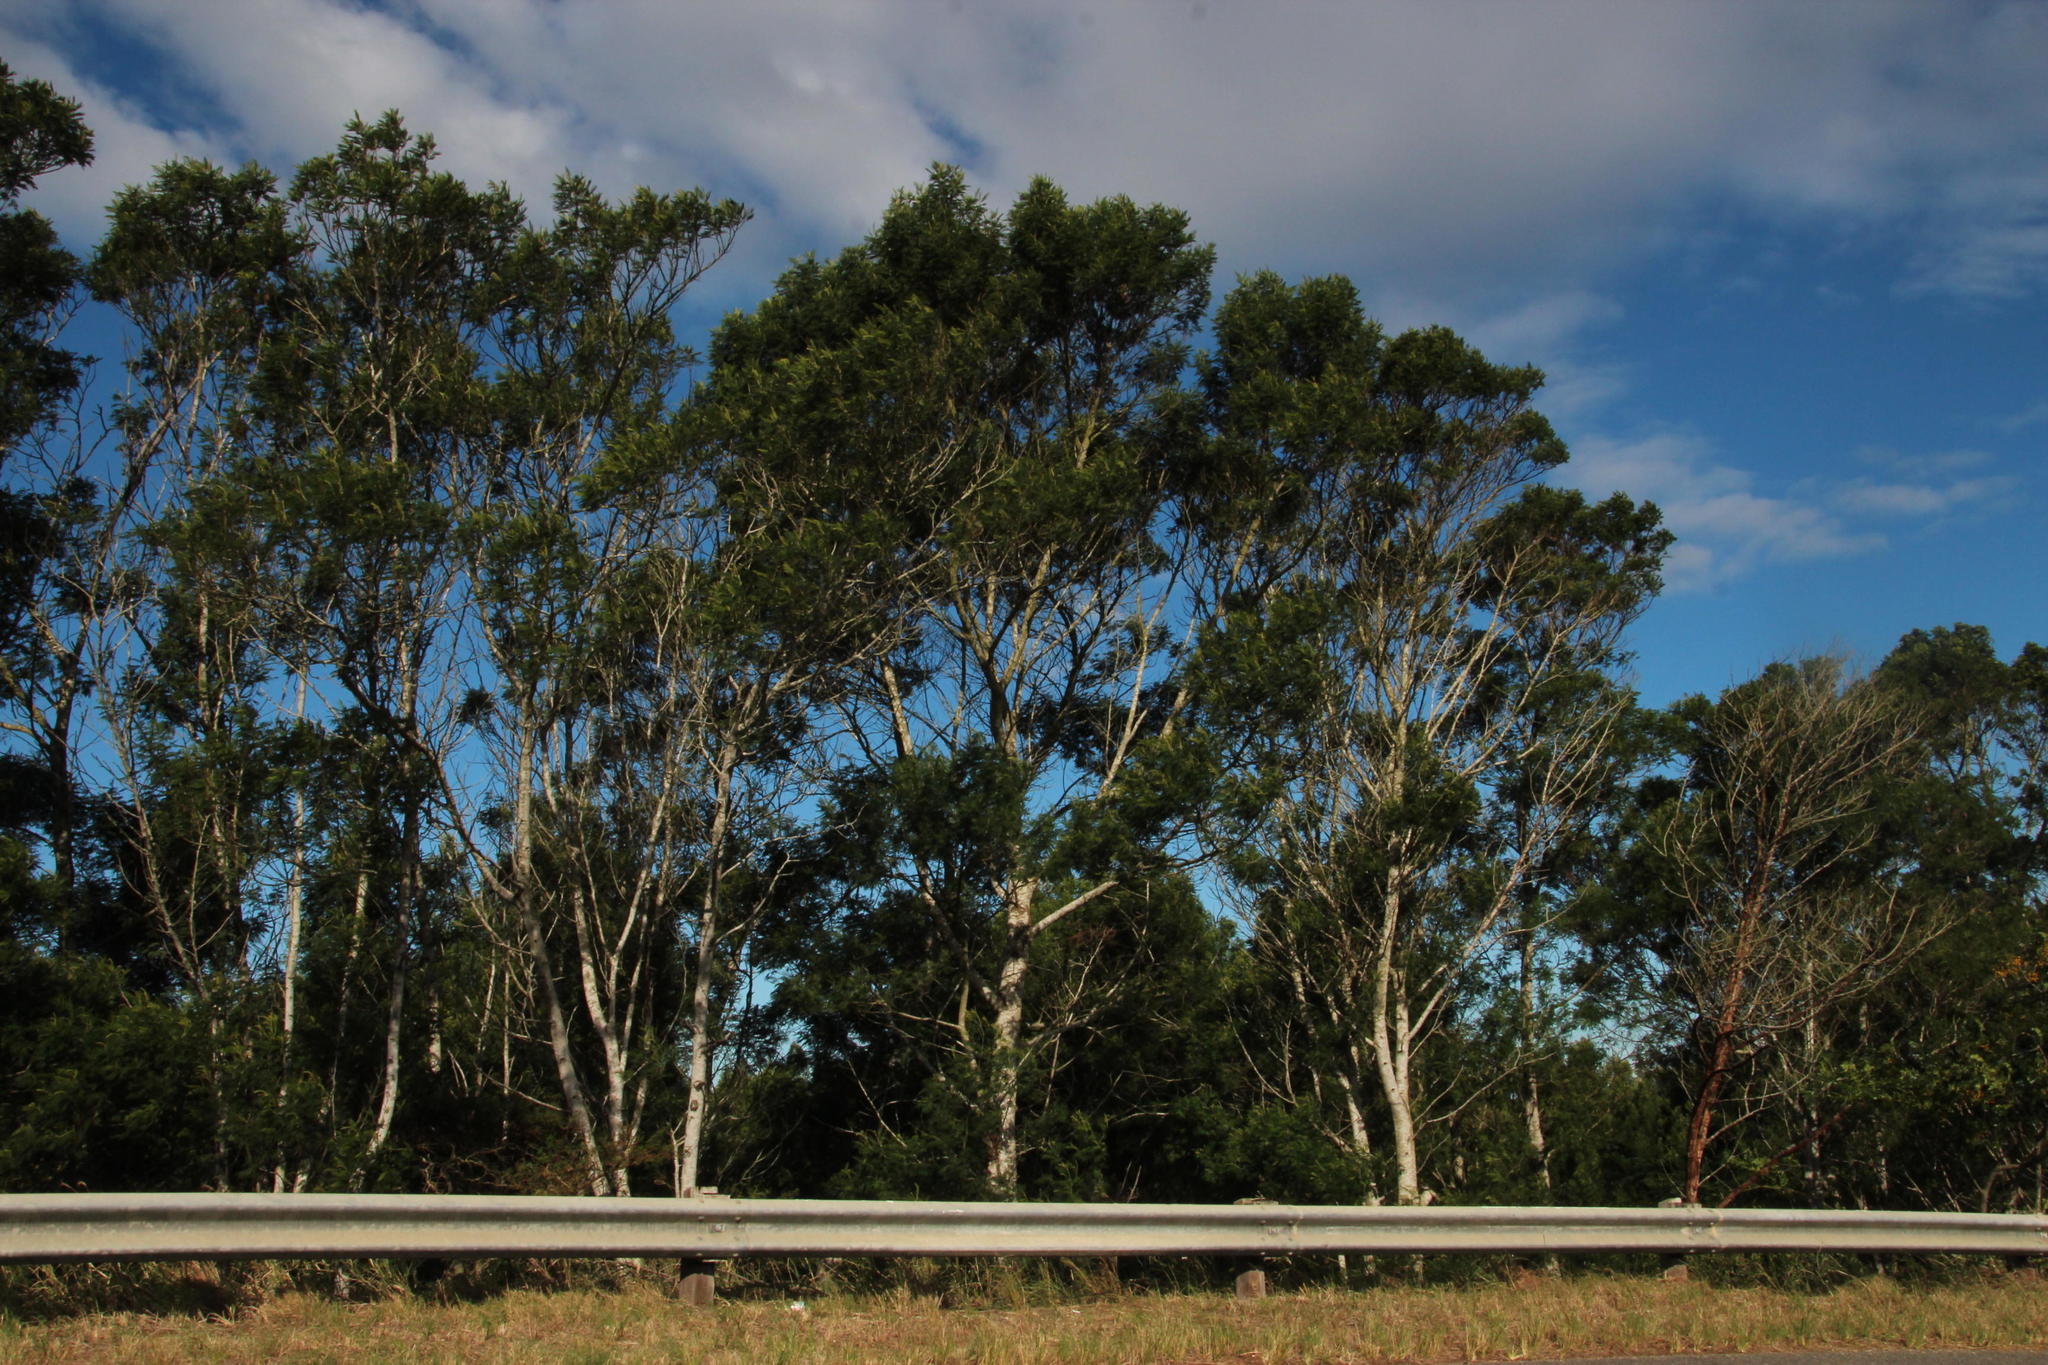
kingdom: Plantae
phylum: Tracheophyta
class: Magnoliopsida
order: Fabales
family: Fabaceae
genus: Acacia
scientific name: Acacia mearnsii
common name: Black wattle
